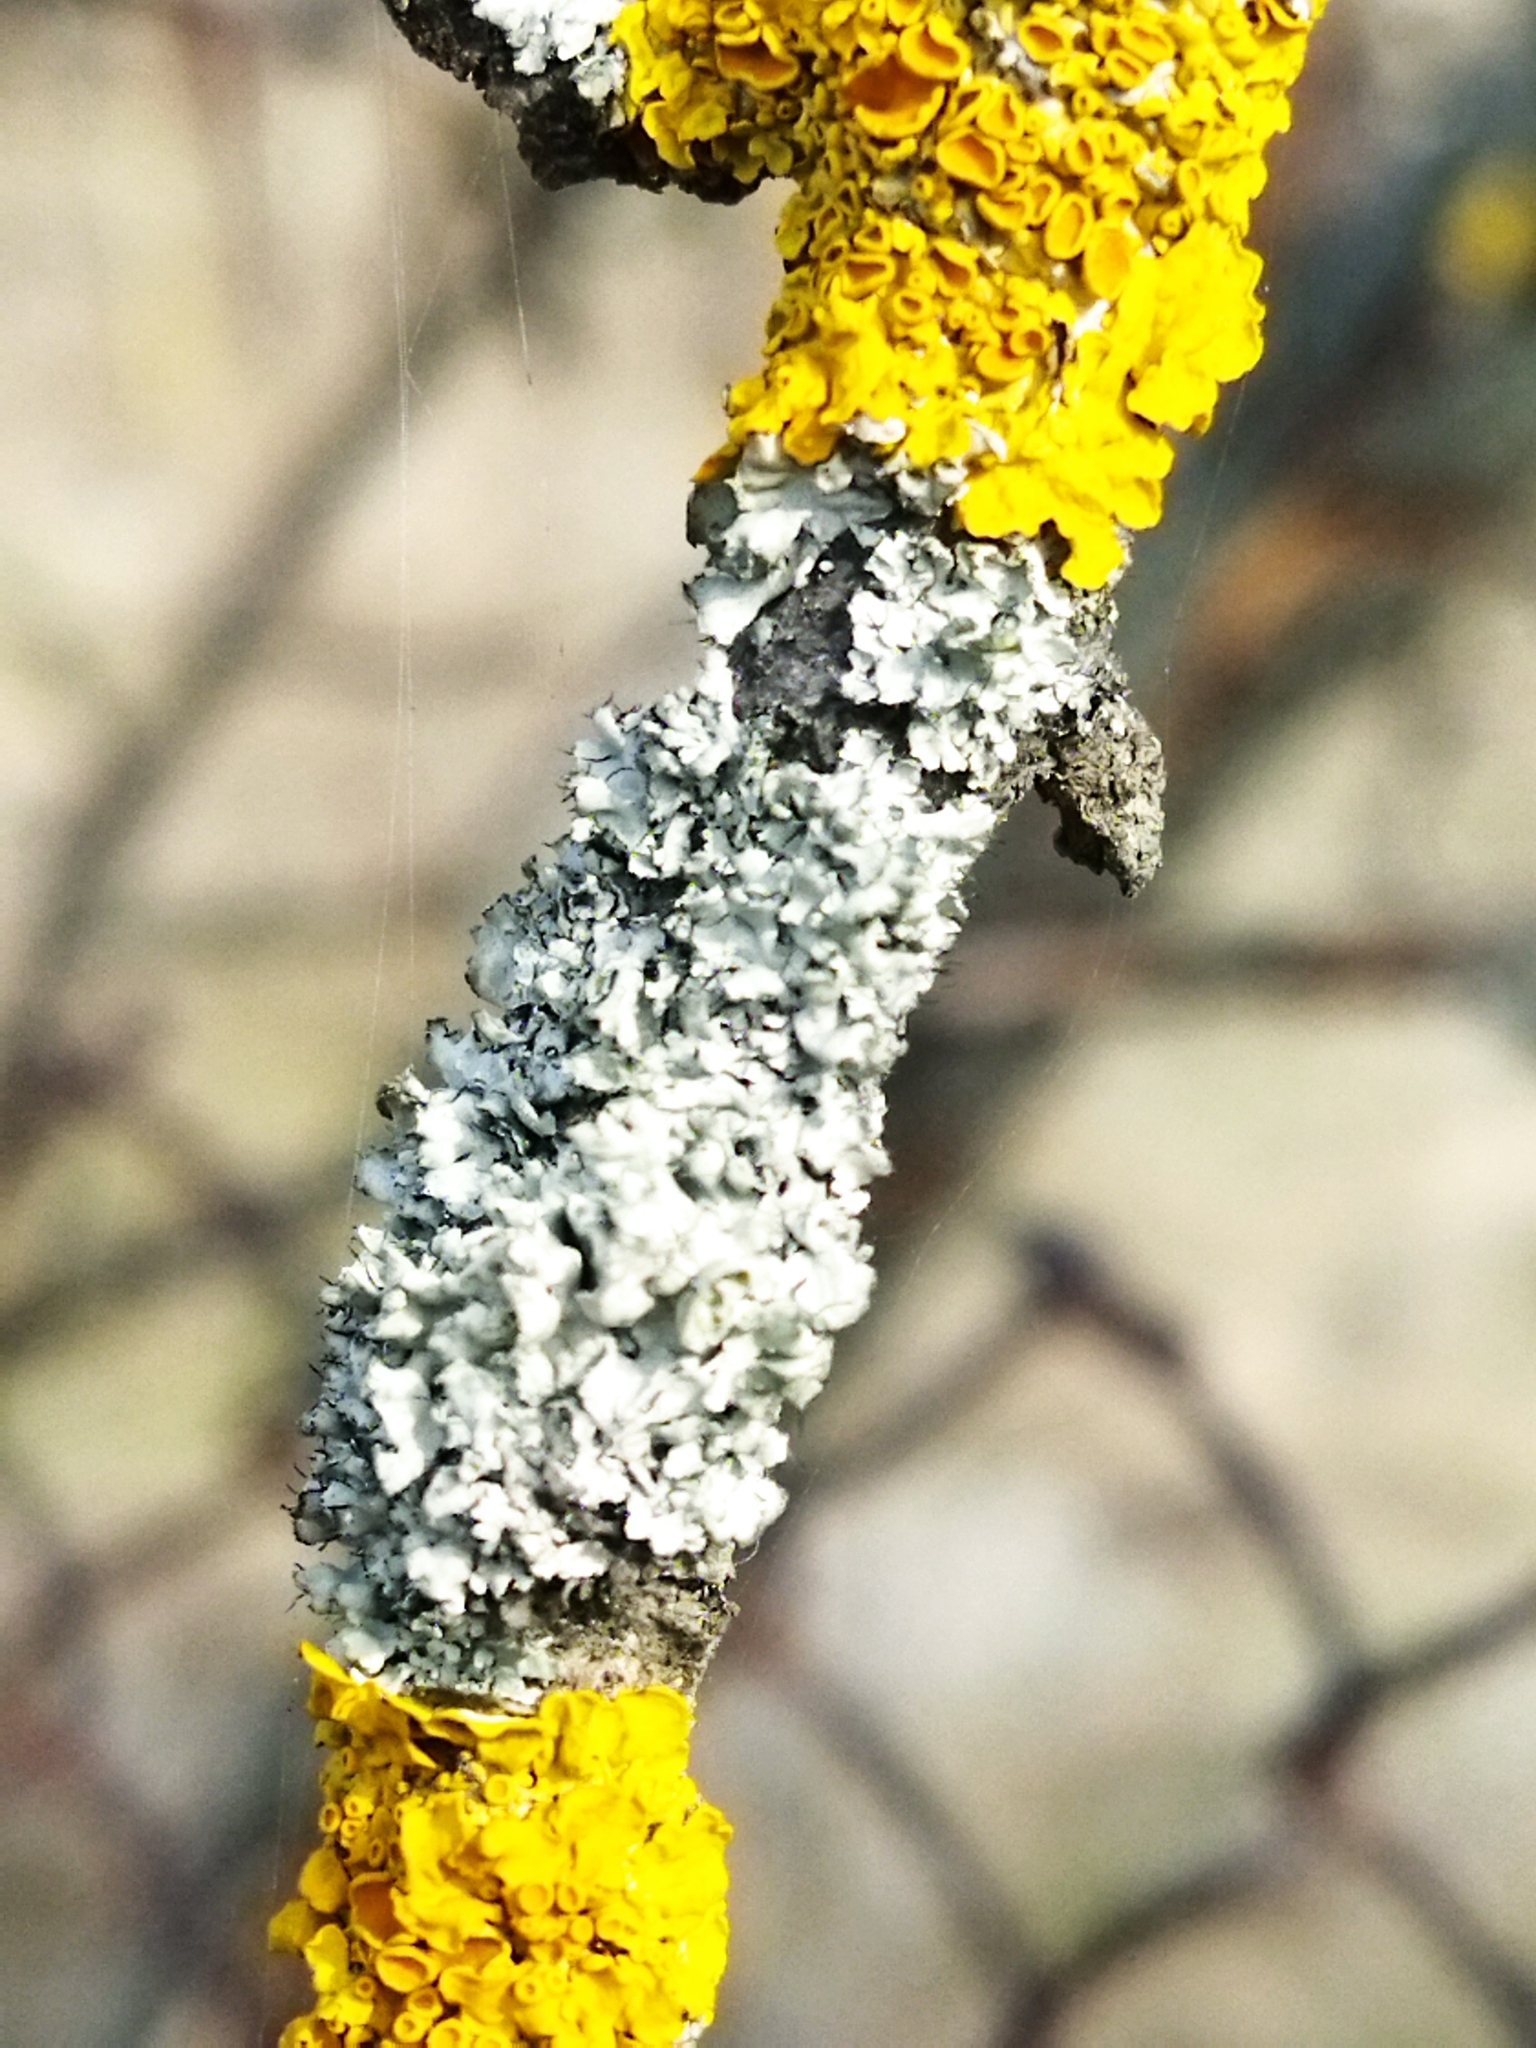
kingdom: Fungi
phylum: Ascomycota
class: Lecanoromycetes
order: Caliciales
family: Physciaceae
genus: Physcia
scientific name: Physcia adscendens
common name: Hooded rosette lichen
